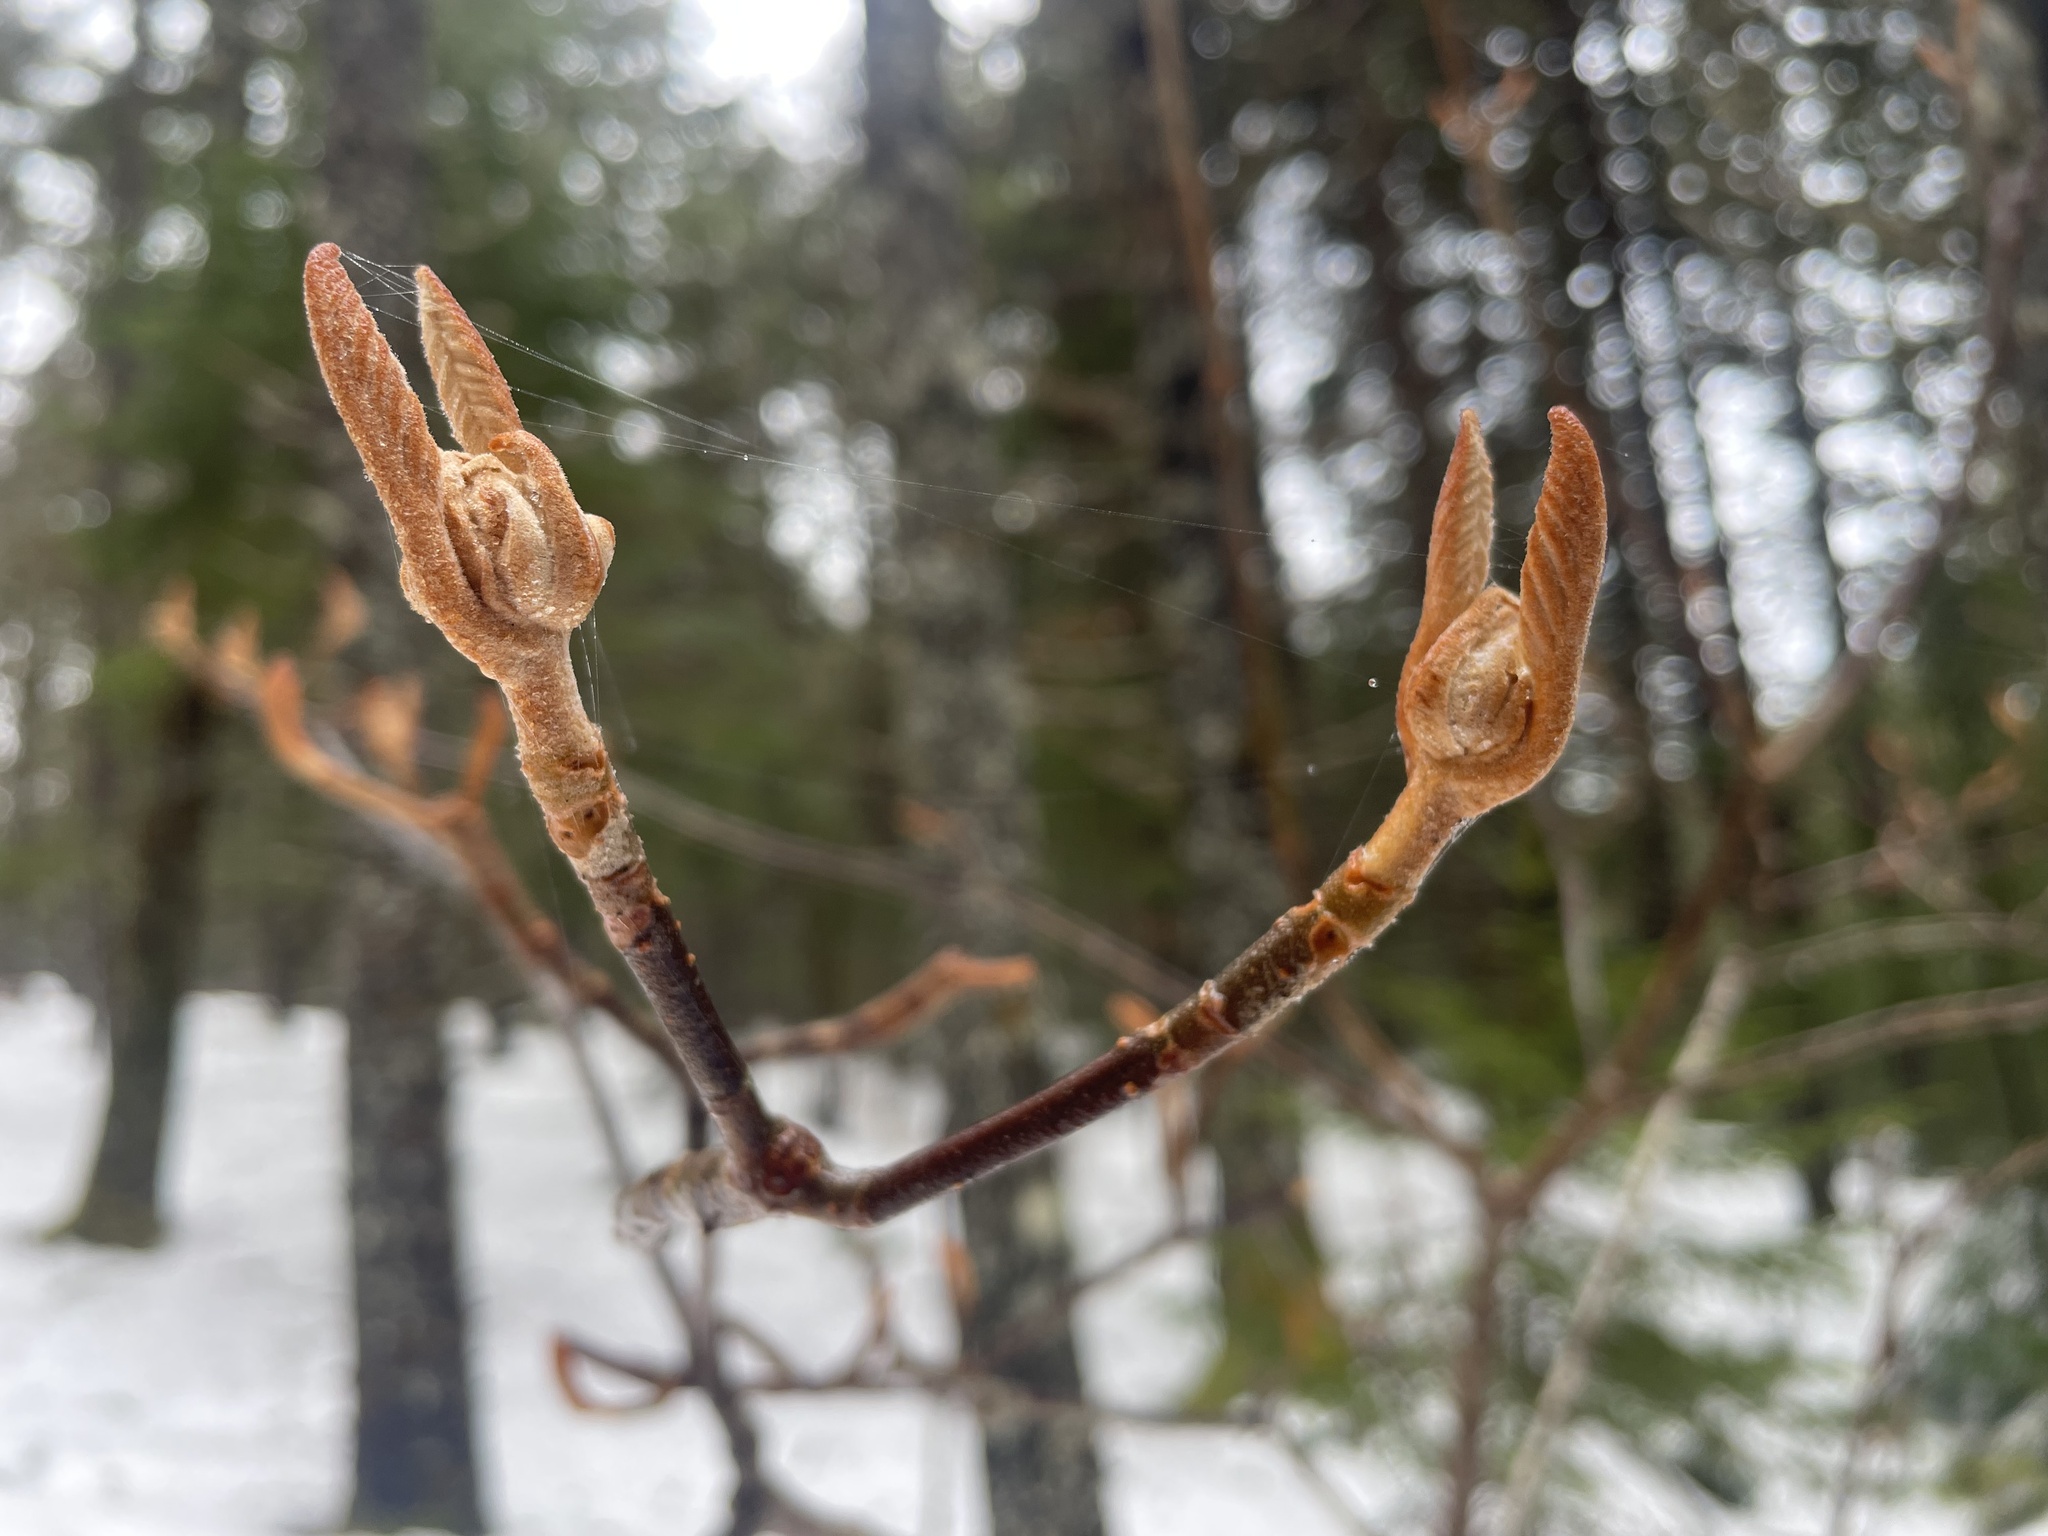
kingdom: Plantae
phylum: Tracheophyta
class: Magnoliopsida
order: Dipsacales
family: Viburnaceae
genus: Viburnum
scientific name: Viburnum lantanoides
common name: Hobblebush
